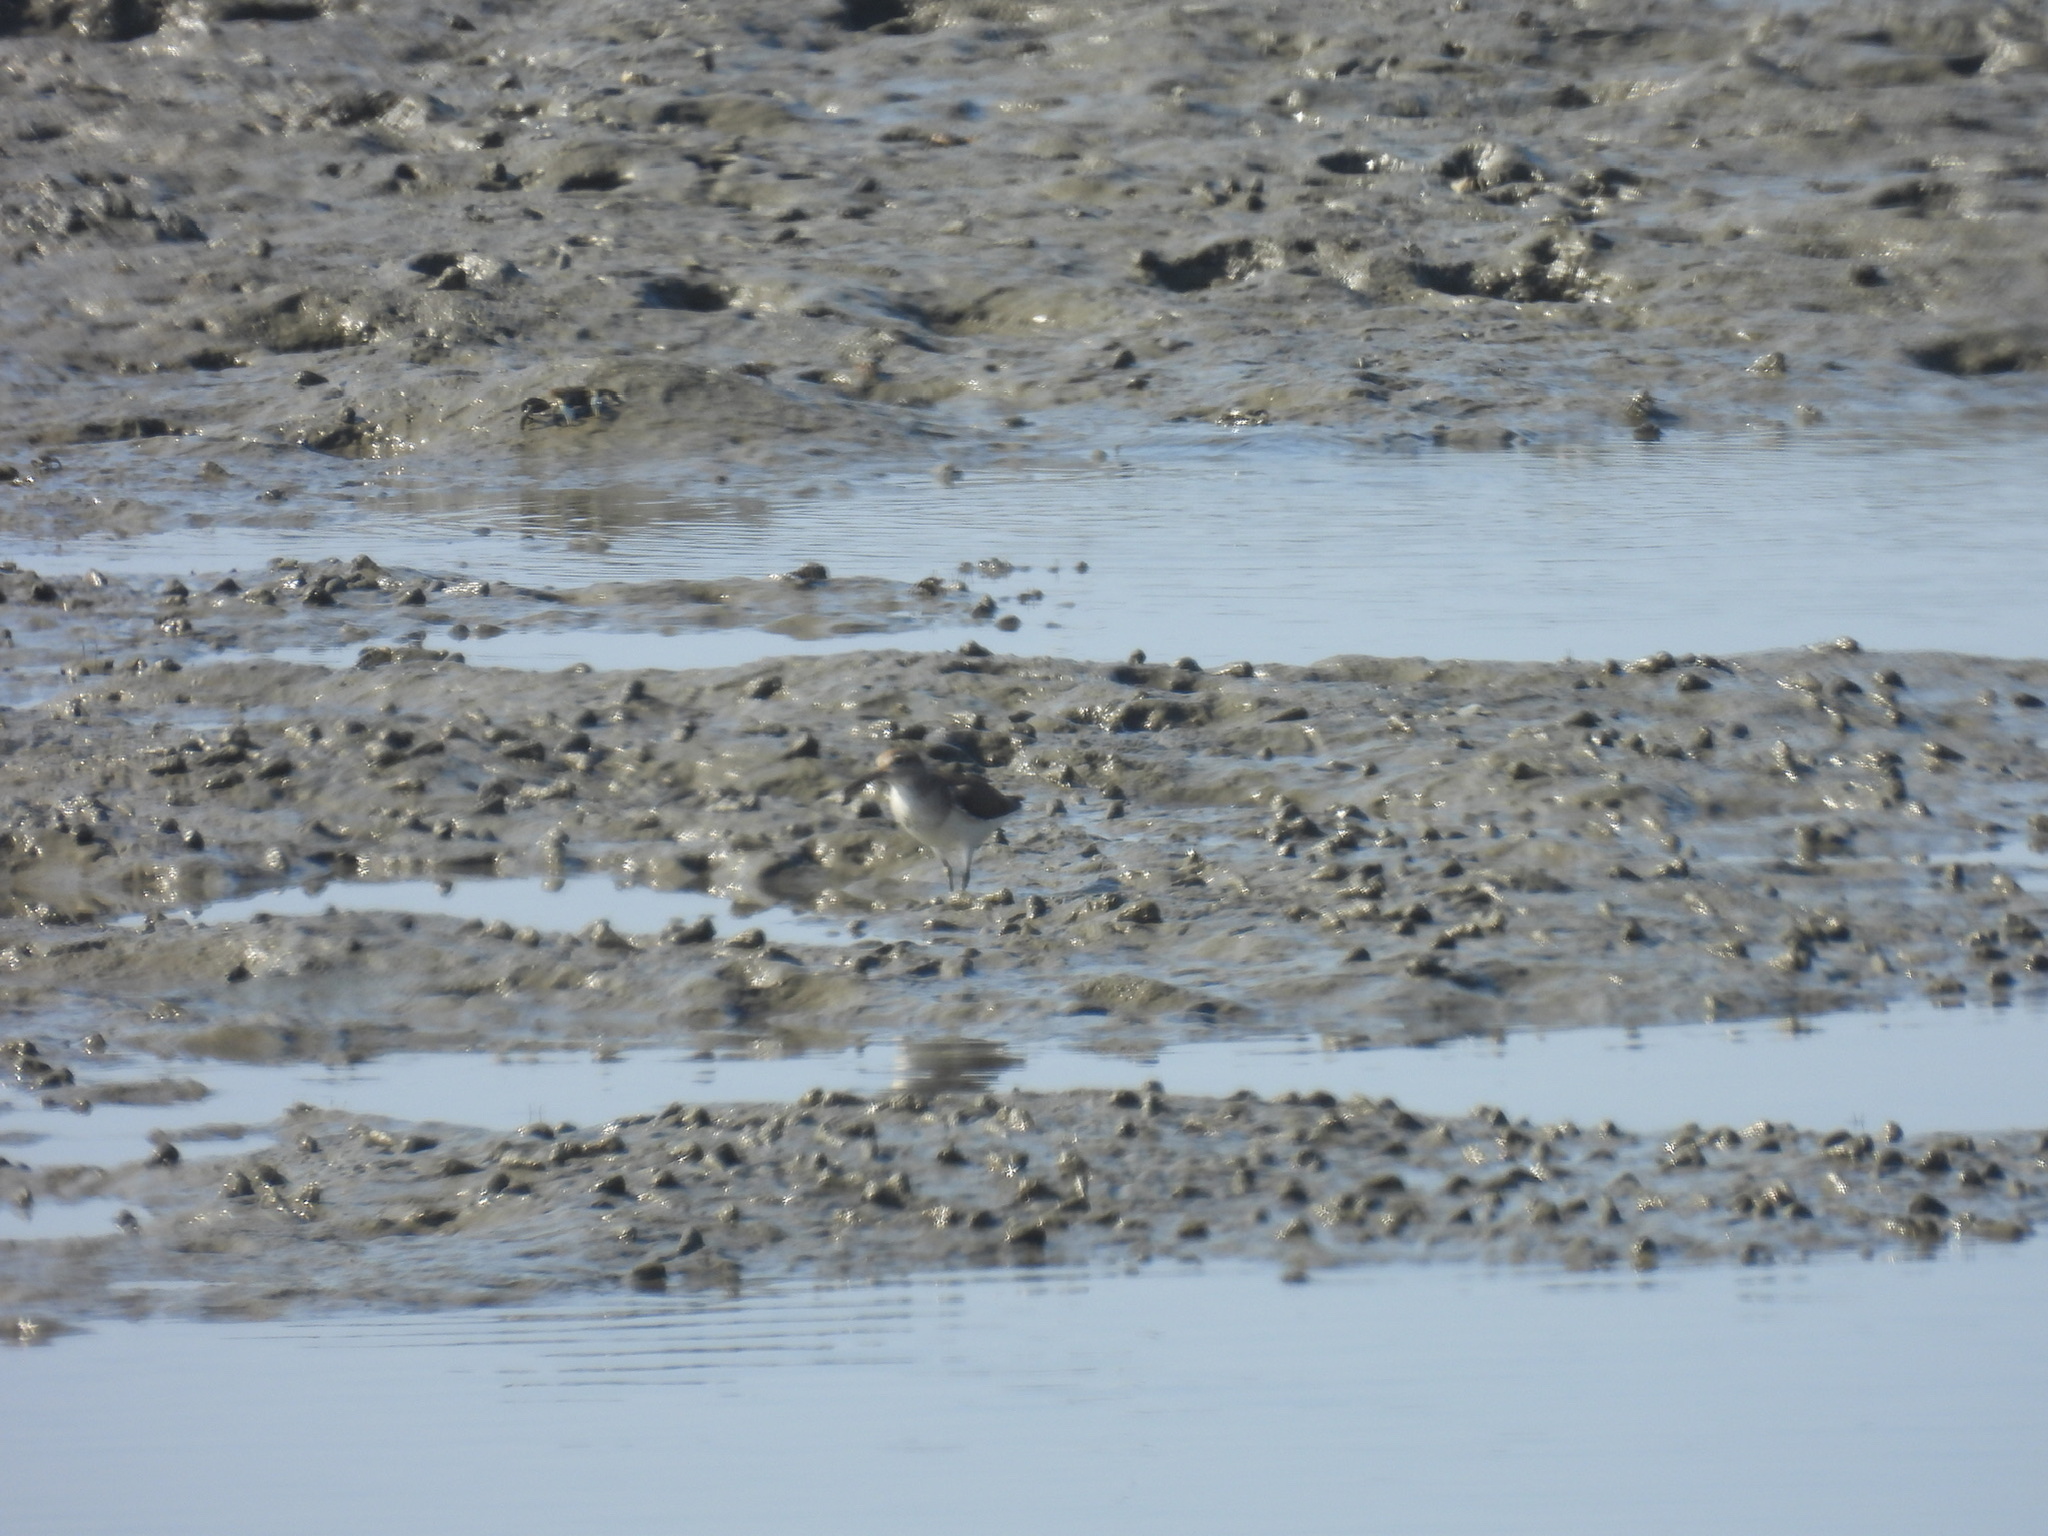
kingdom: Animalia
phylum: Chordata
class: Aves
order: Charadriiformes
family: Scolopacidae
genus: Actitis
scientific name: Actitis hypoleucos
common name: Common sandpiper
